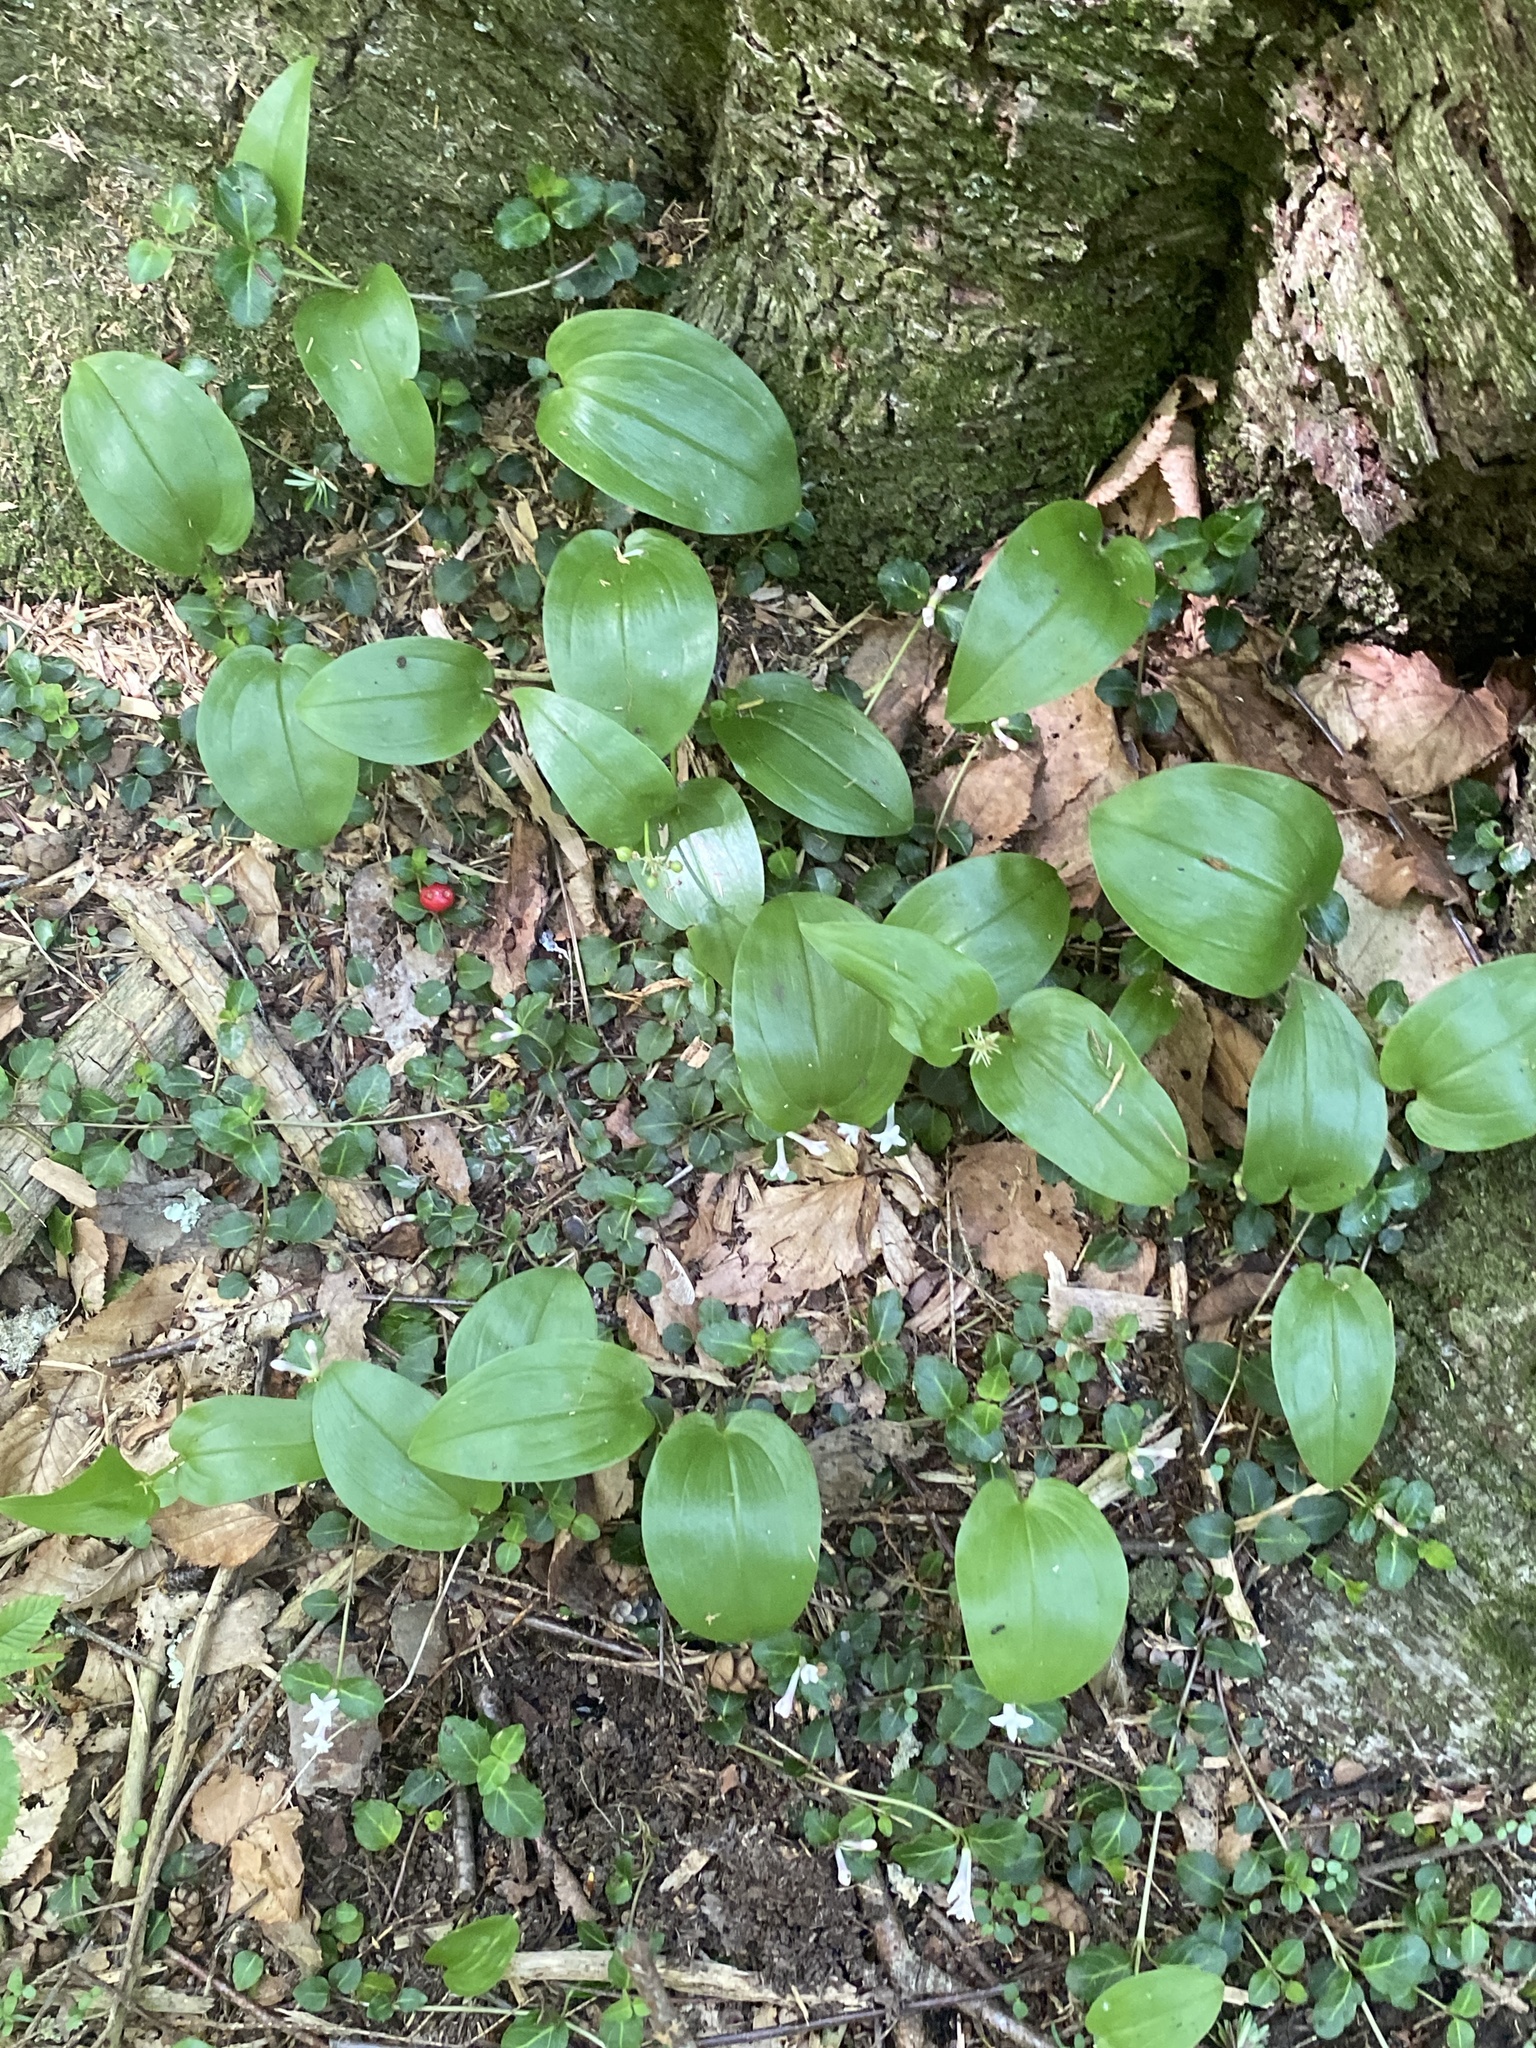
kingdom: Plantae
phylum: Tracheophyta
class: Liliopsida
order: Asparagales
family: Asparagaceae
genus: Maianthemum
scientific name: Maianthemum canadense
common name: False lily-of-the-valley
